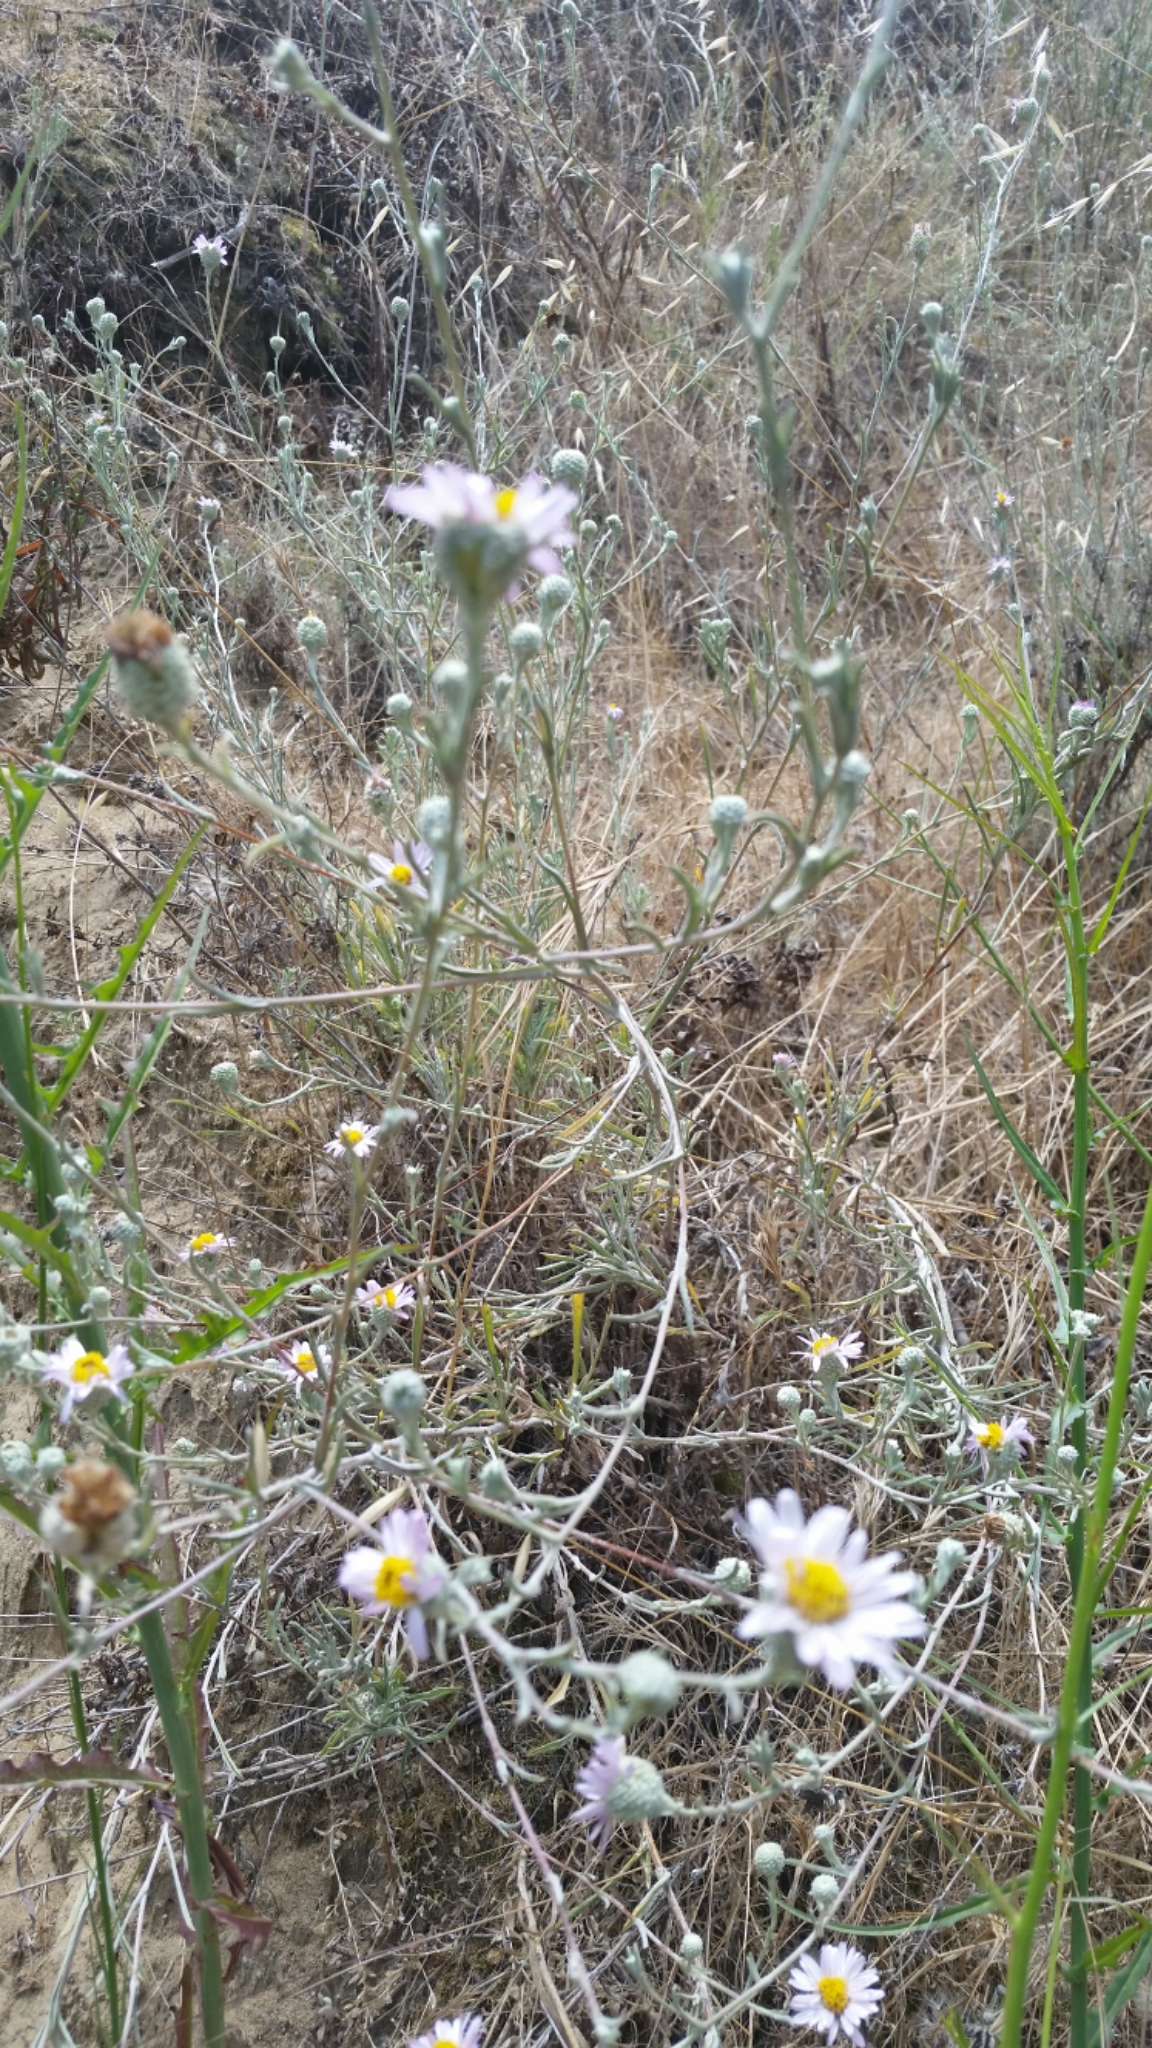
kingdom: Plantae
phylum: Tracheophyta
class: Magnoliopsida
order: Asterales
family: Asteraceae
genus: Corethrogyne
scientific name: Corethrogyne filaginifolia
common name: Sand-aster
